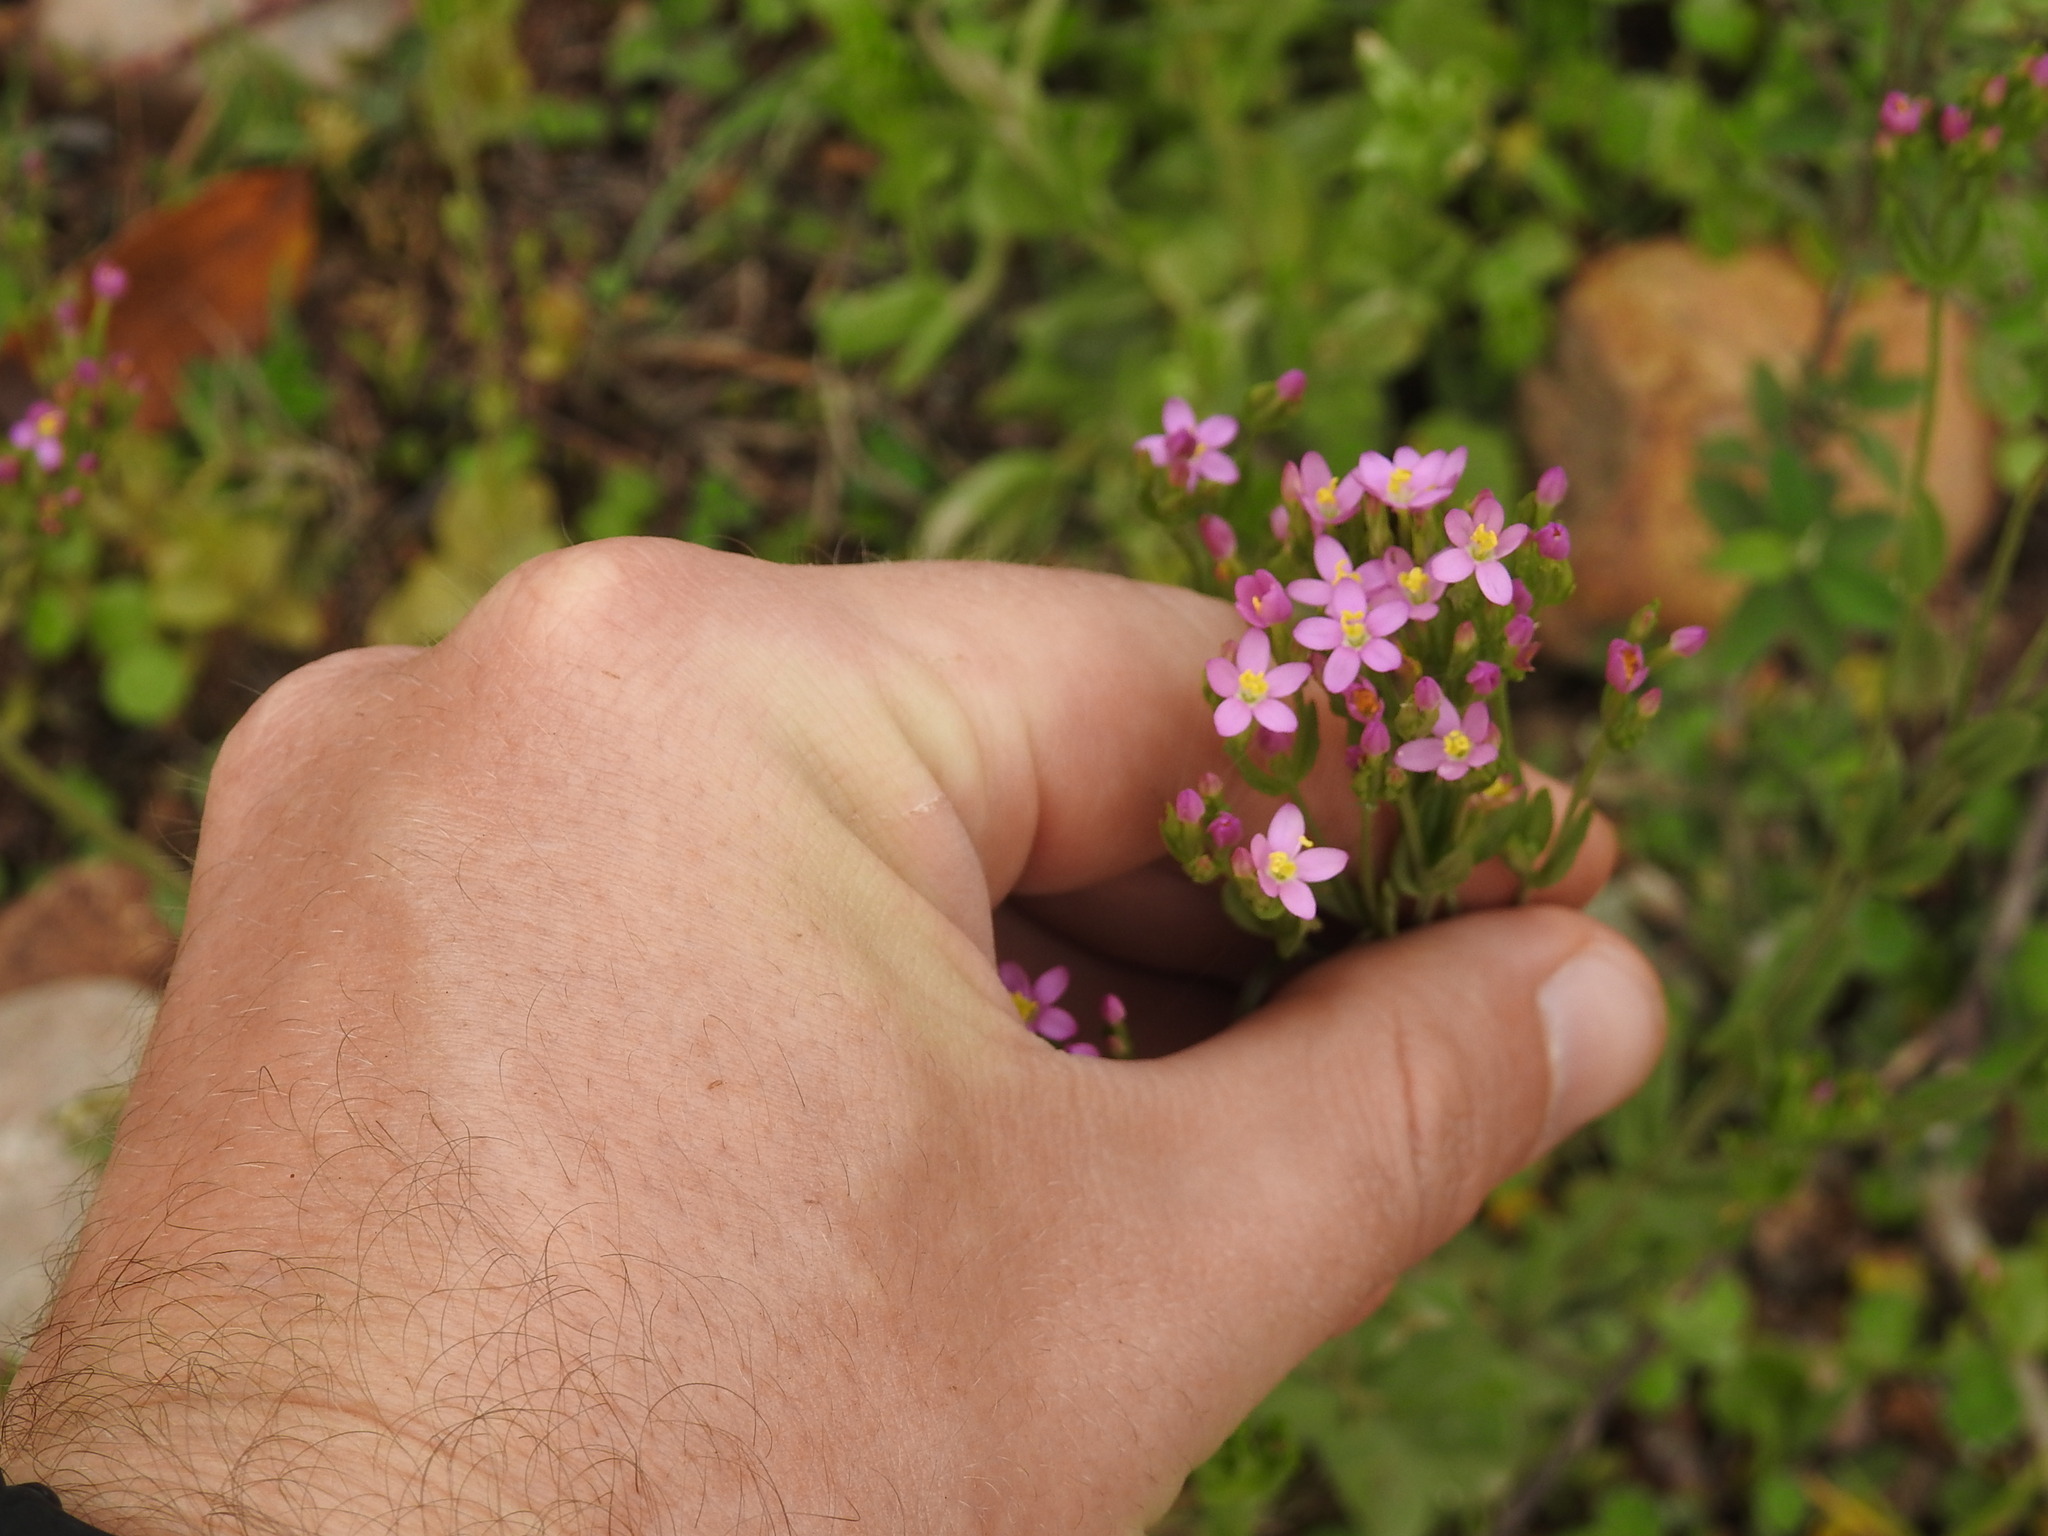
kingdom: Plantae
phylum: Tracheophyta
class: Magnoliopsida
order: Gentianales
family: Gentianaceae
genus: Centaurium
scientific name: Centaurium pulchellum
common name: Lesser centaury
